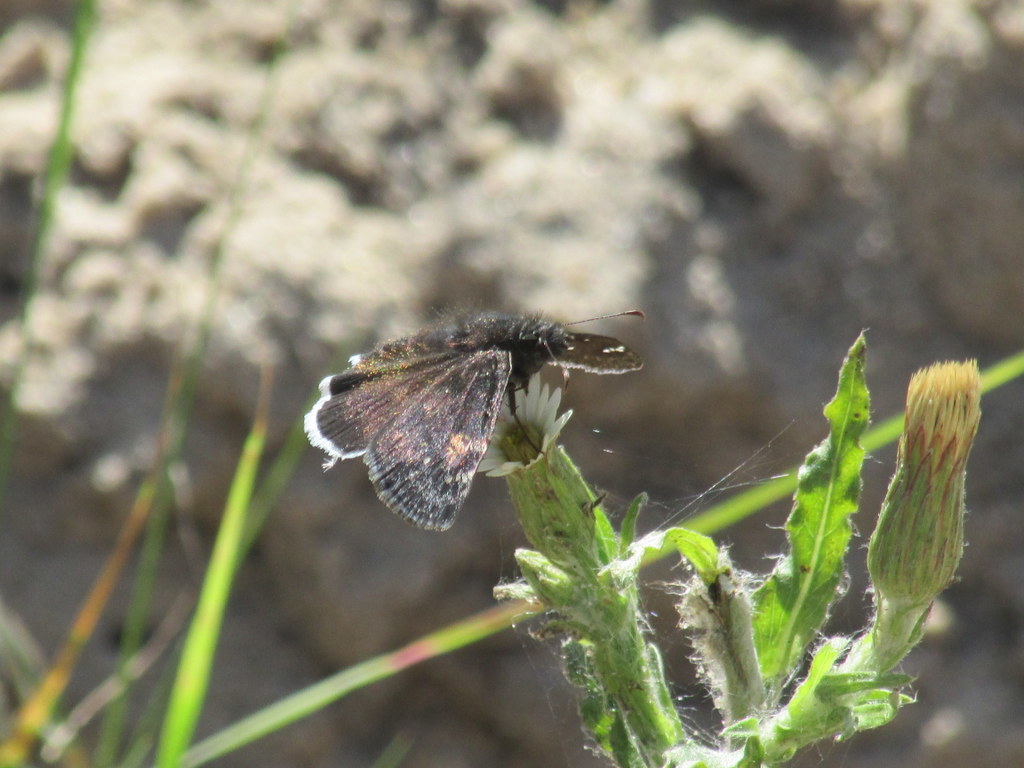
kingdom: Animalia
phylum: Arthropoda
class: Insecta
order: Lepidoptera
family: Hesperiidae
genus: Erynnis
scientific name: Erynnis funeralis
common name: Funereal duskywing
